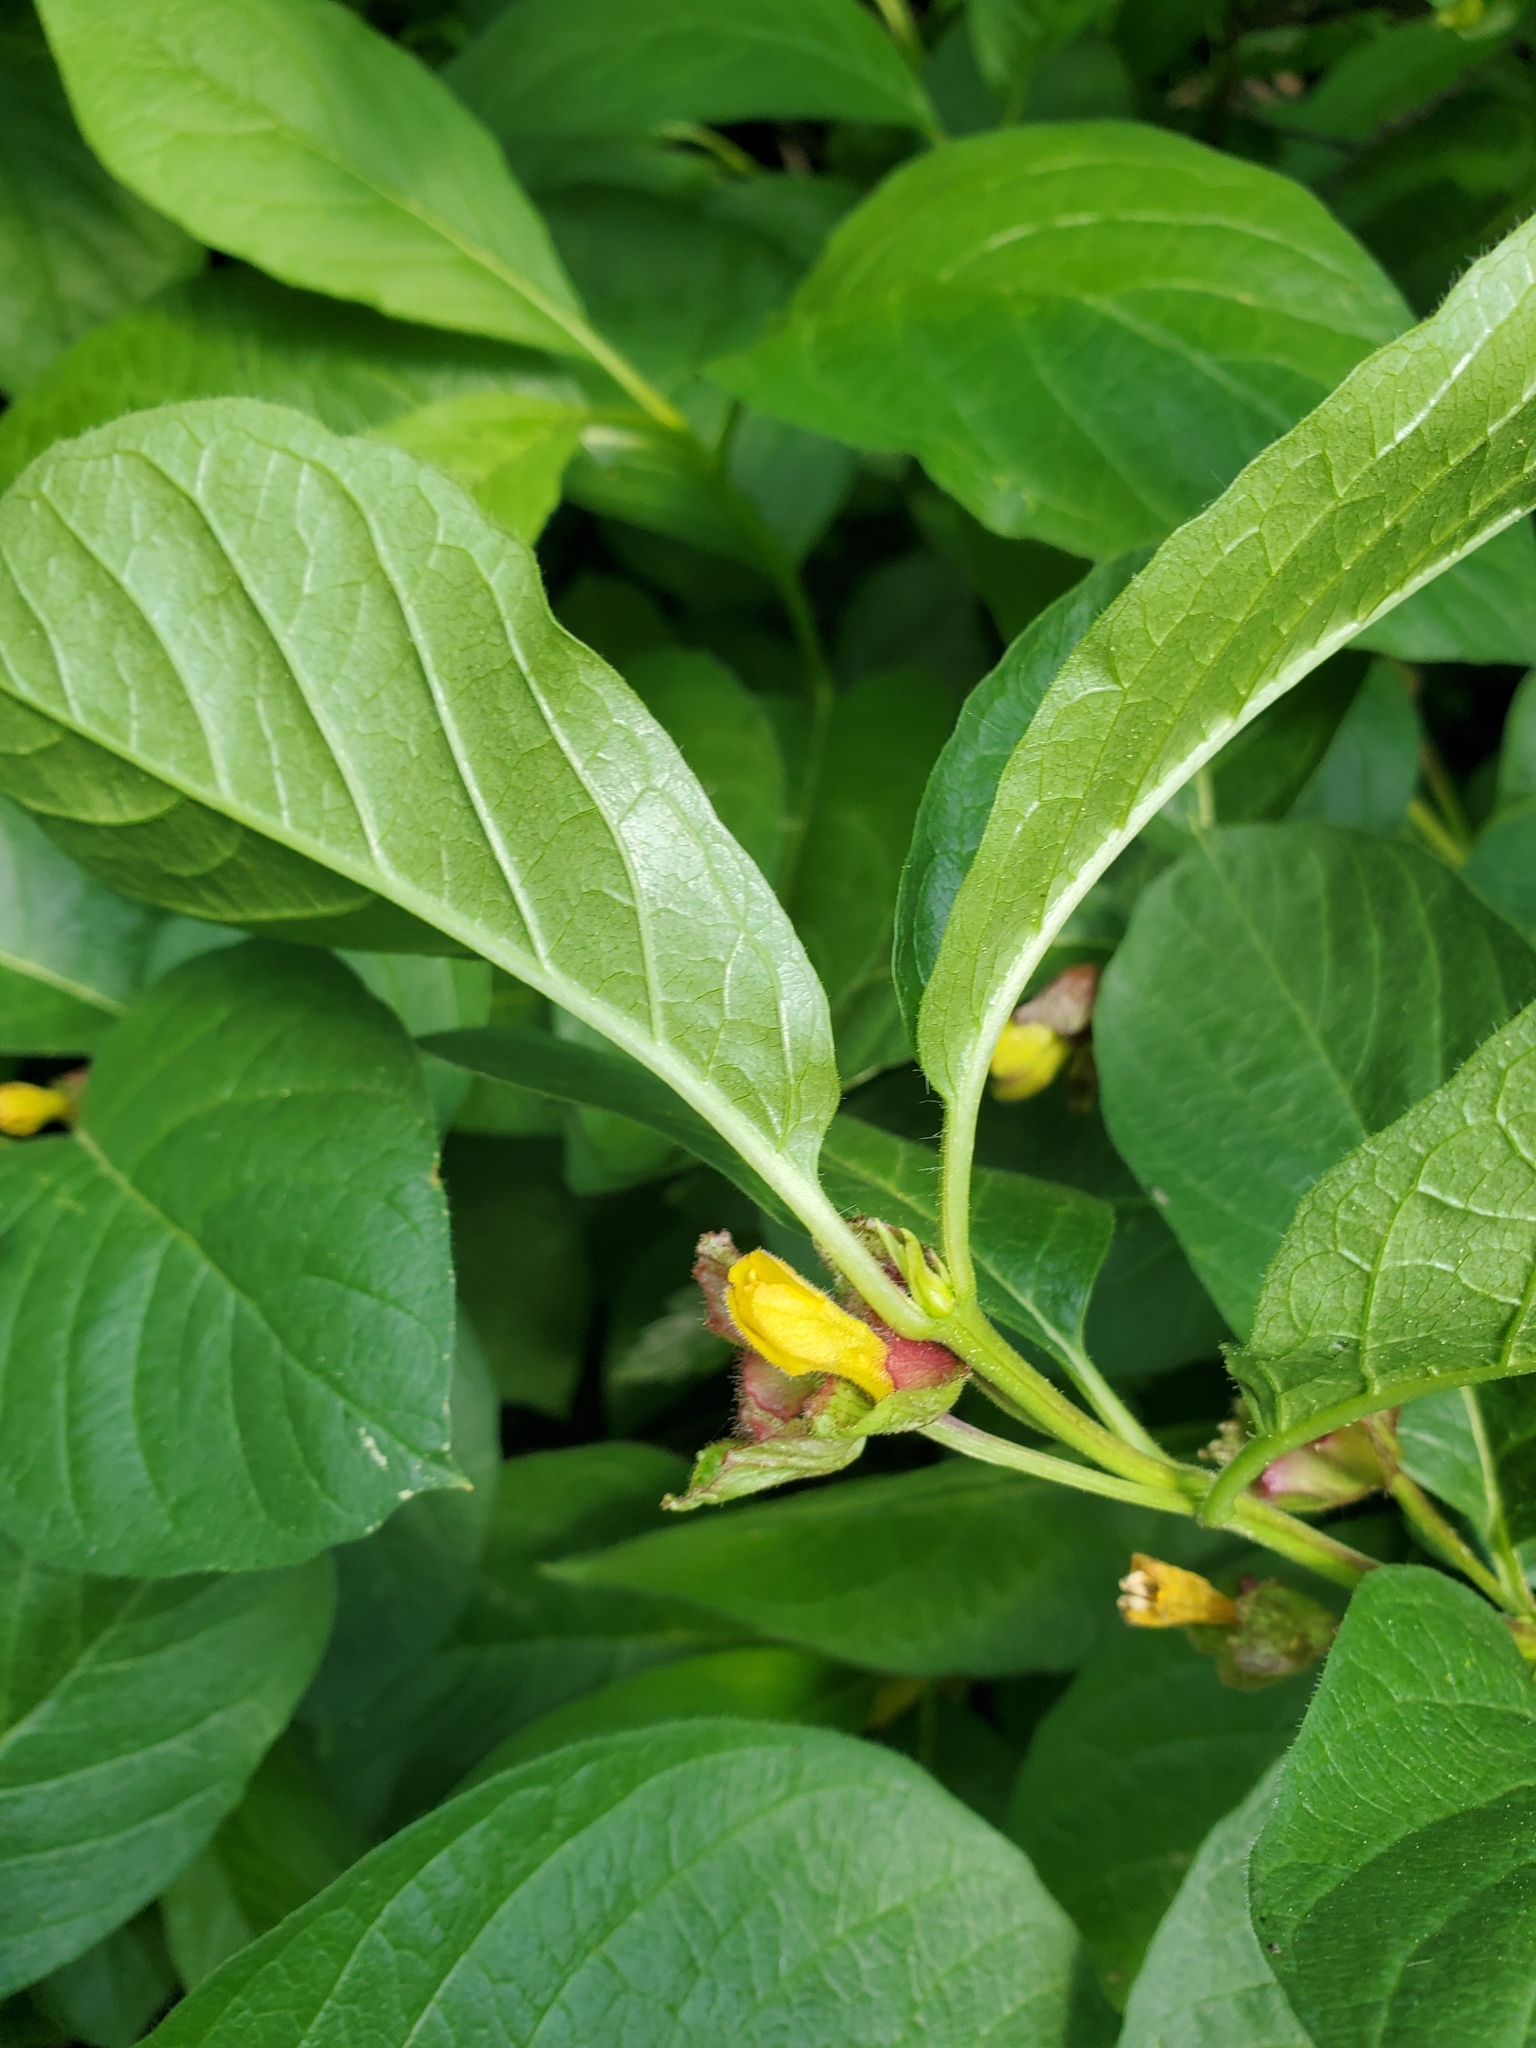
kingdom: Plantae
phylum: Tracheophyta
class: Magnoliopsida
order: Dipsacales
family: Caprifoliaceae
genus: Lonicera
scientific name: Lonicera involucrata
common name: Californian honeysuckle
